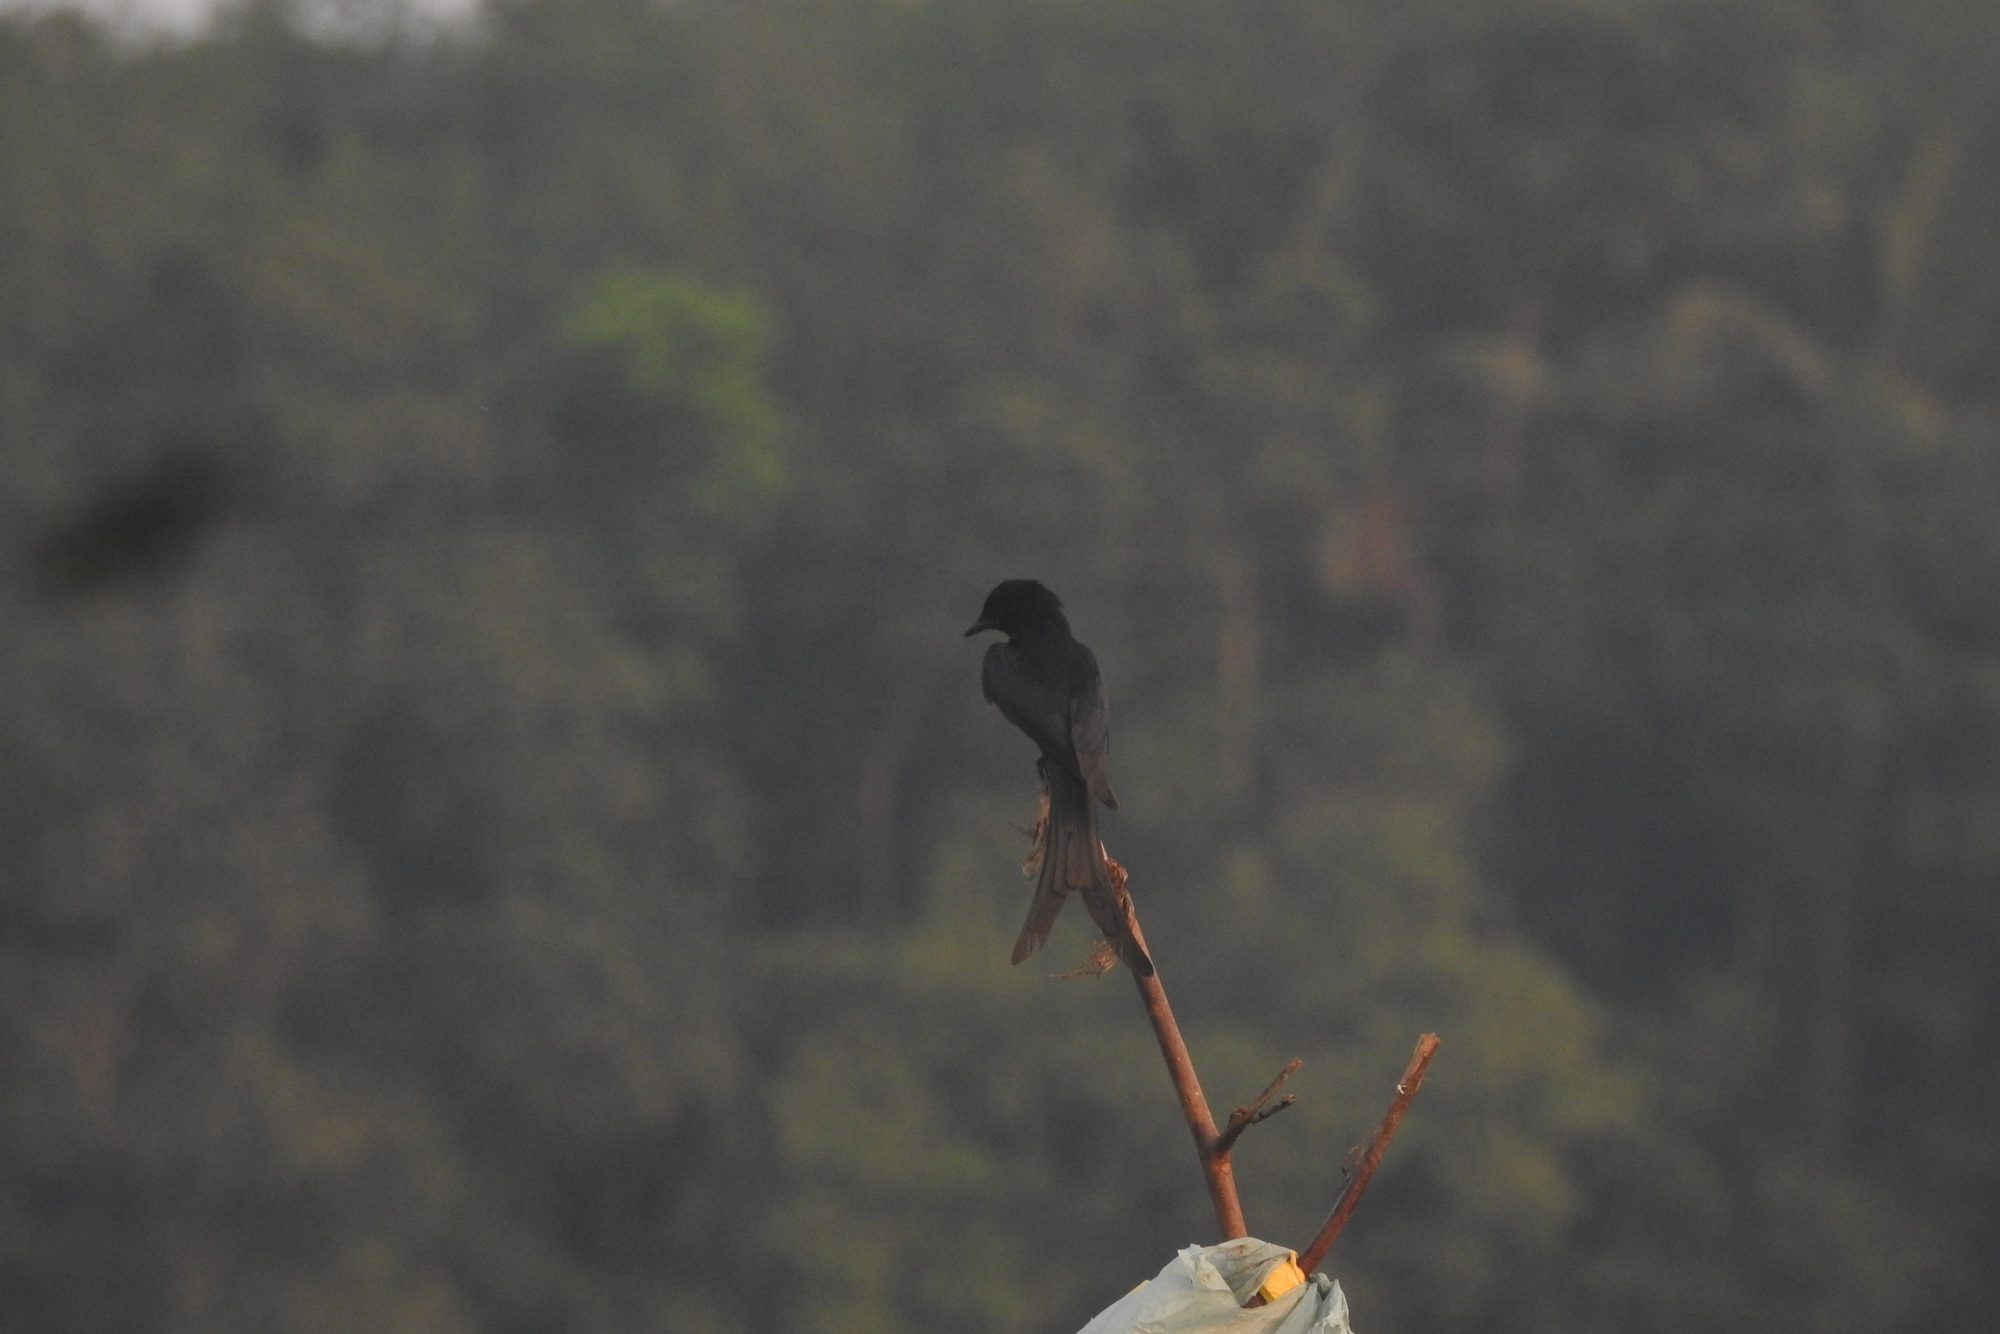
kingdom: Animalia
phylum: Chordata
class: Aves
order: Passeriformes
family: Dicruridae
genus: Dicrurus
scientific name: Dicrurus macrocercus
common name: Black drongo
